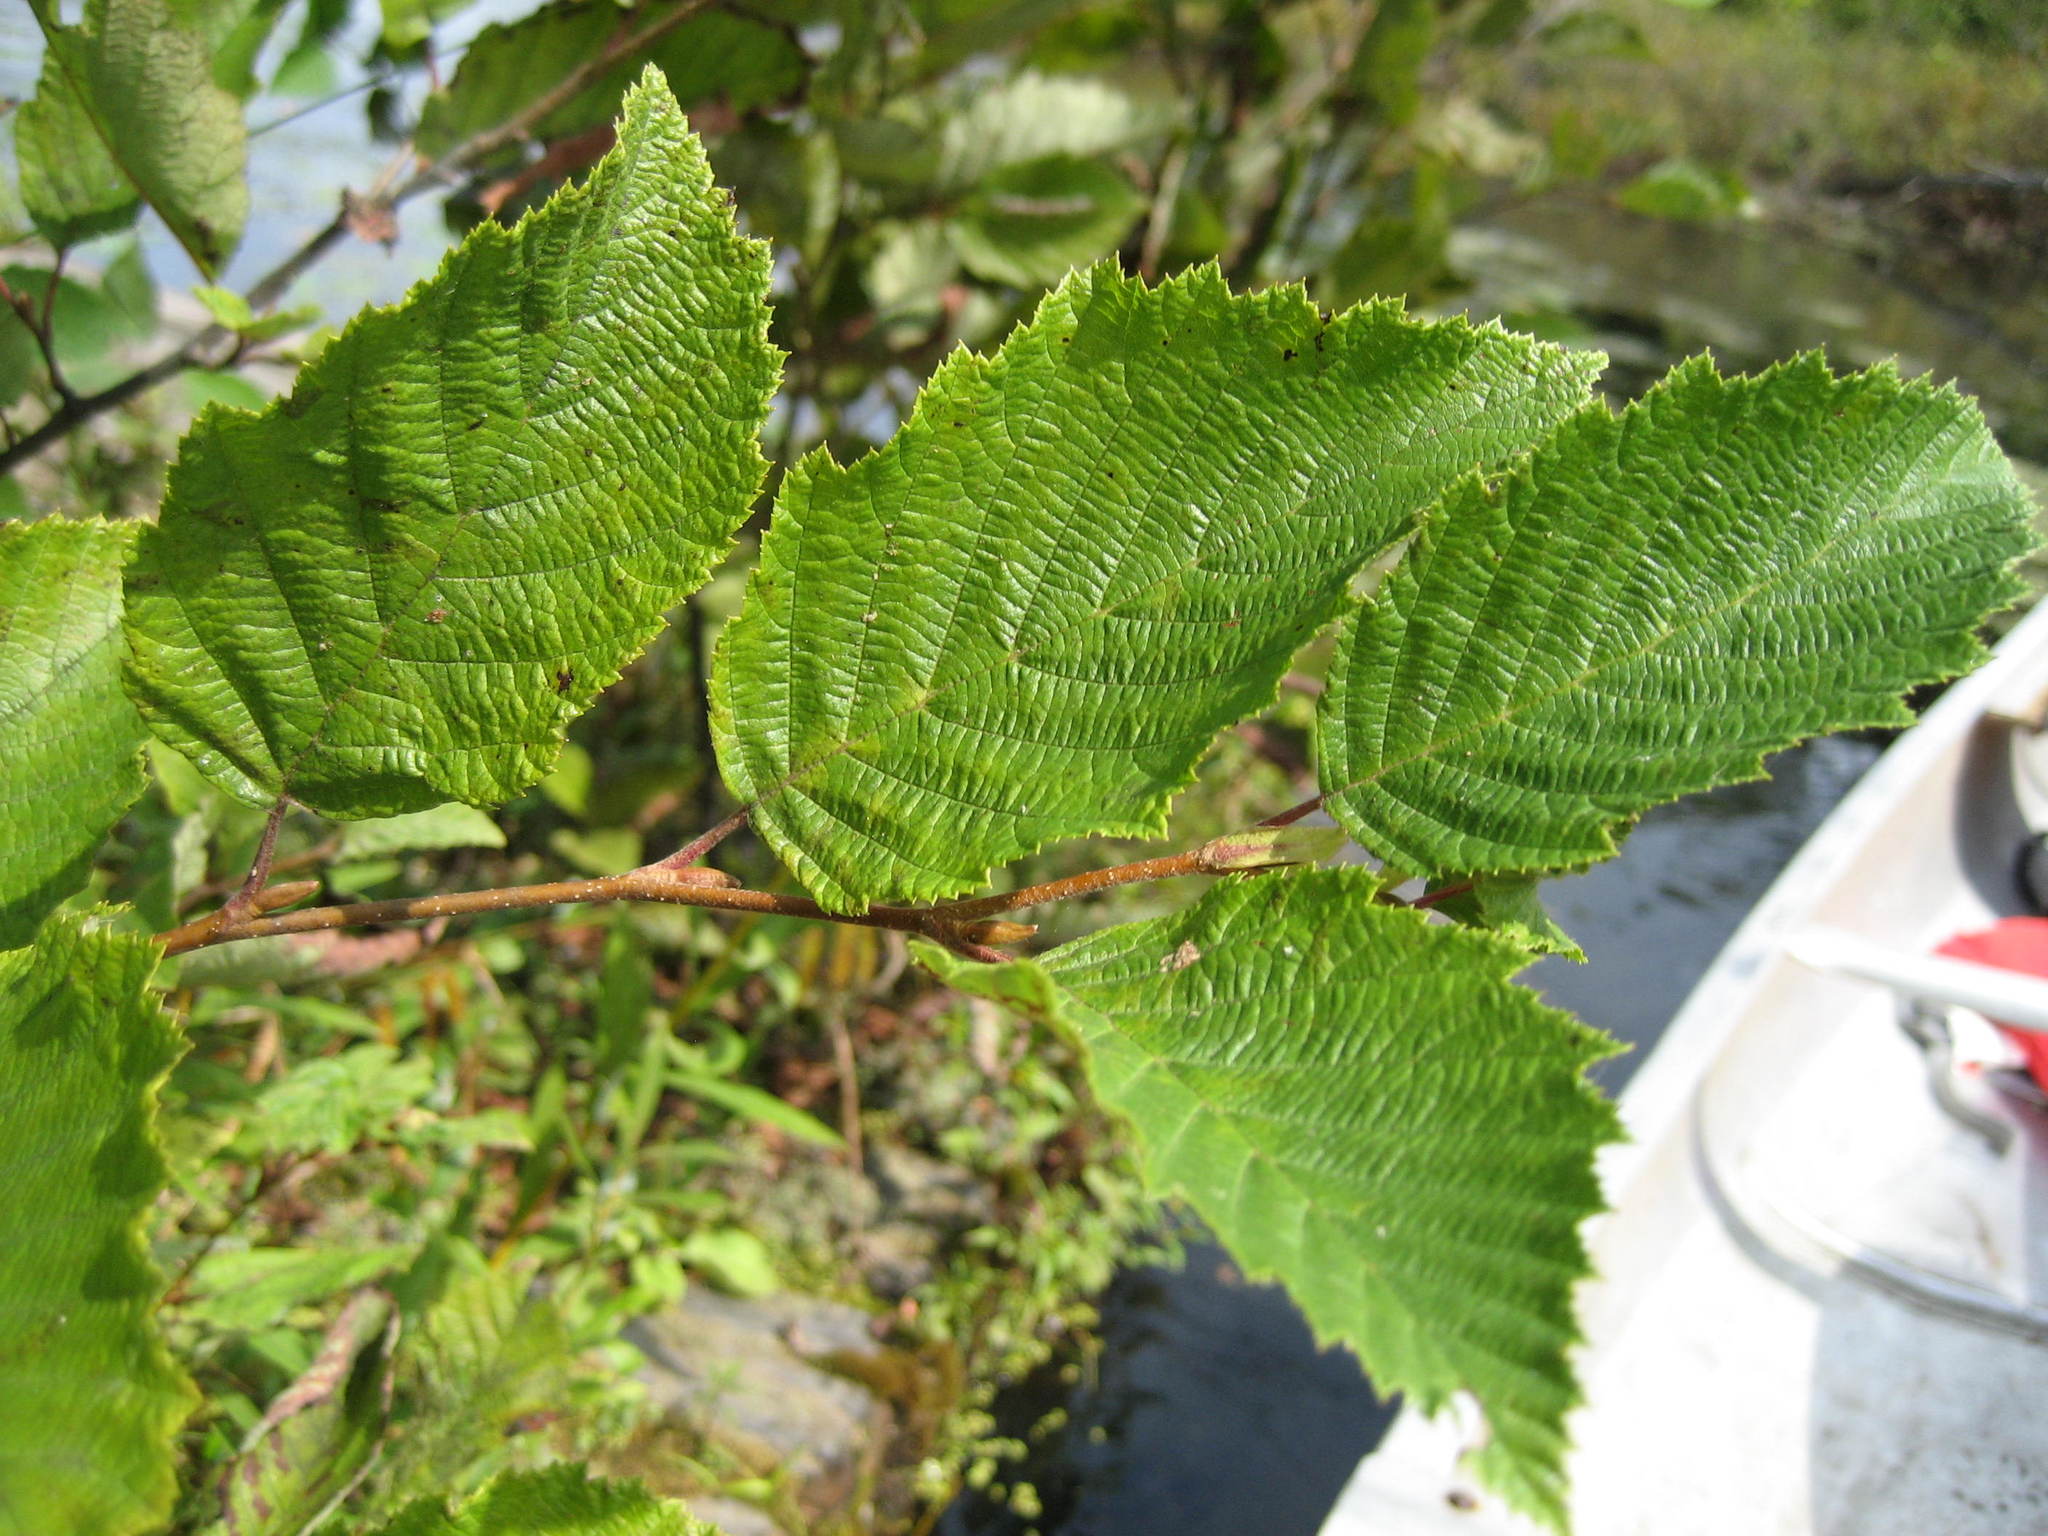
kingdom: Plantae
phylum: Tracheophyta
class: Magnoliopsida
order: Fagales
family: Betulaceae
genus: Alnus
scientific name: Alnus incana
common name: Grey alder
